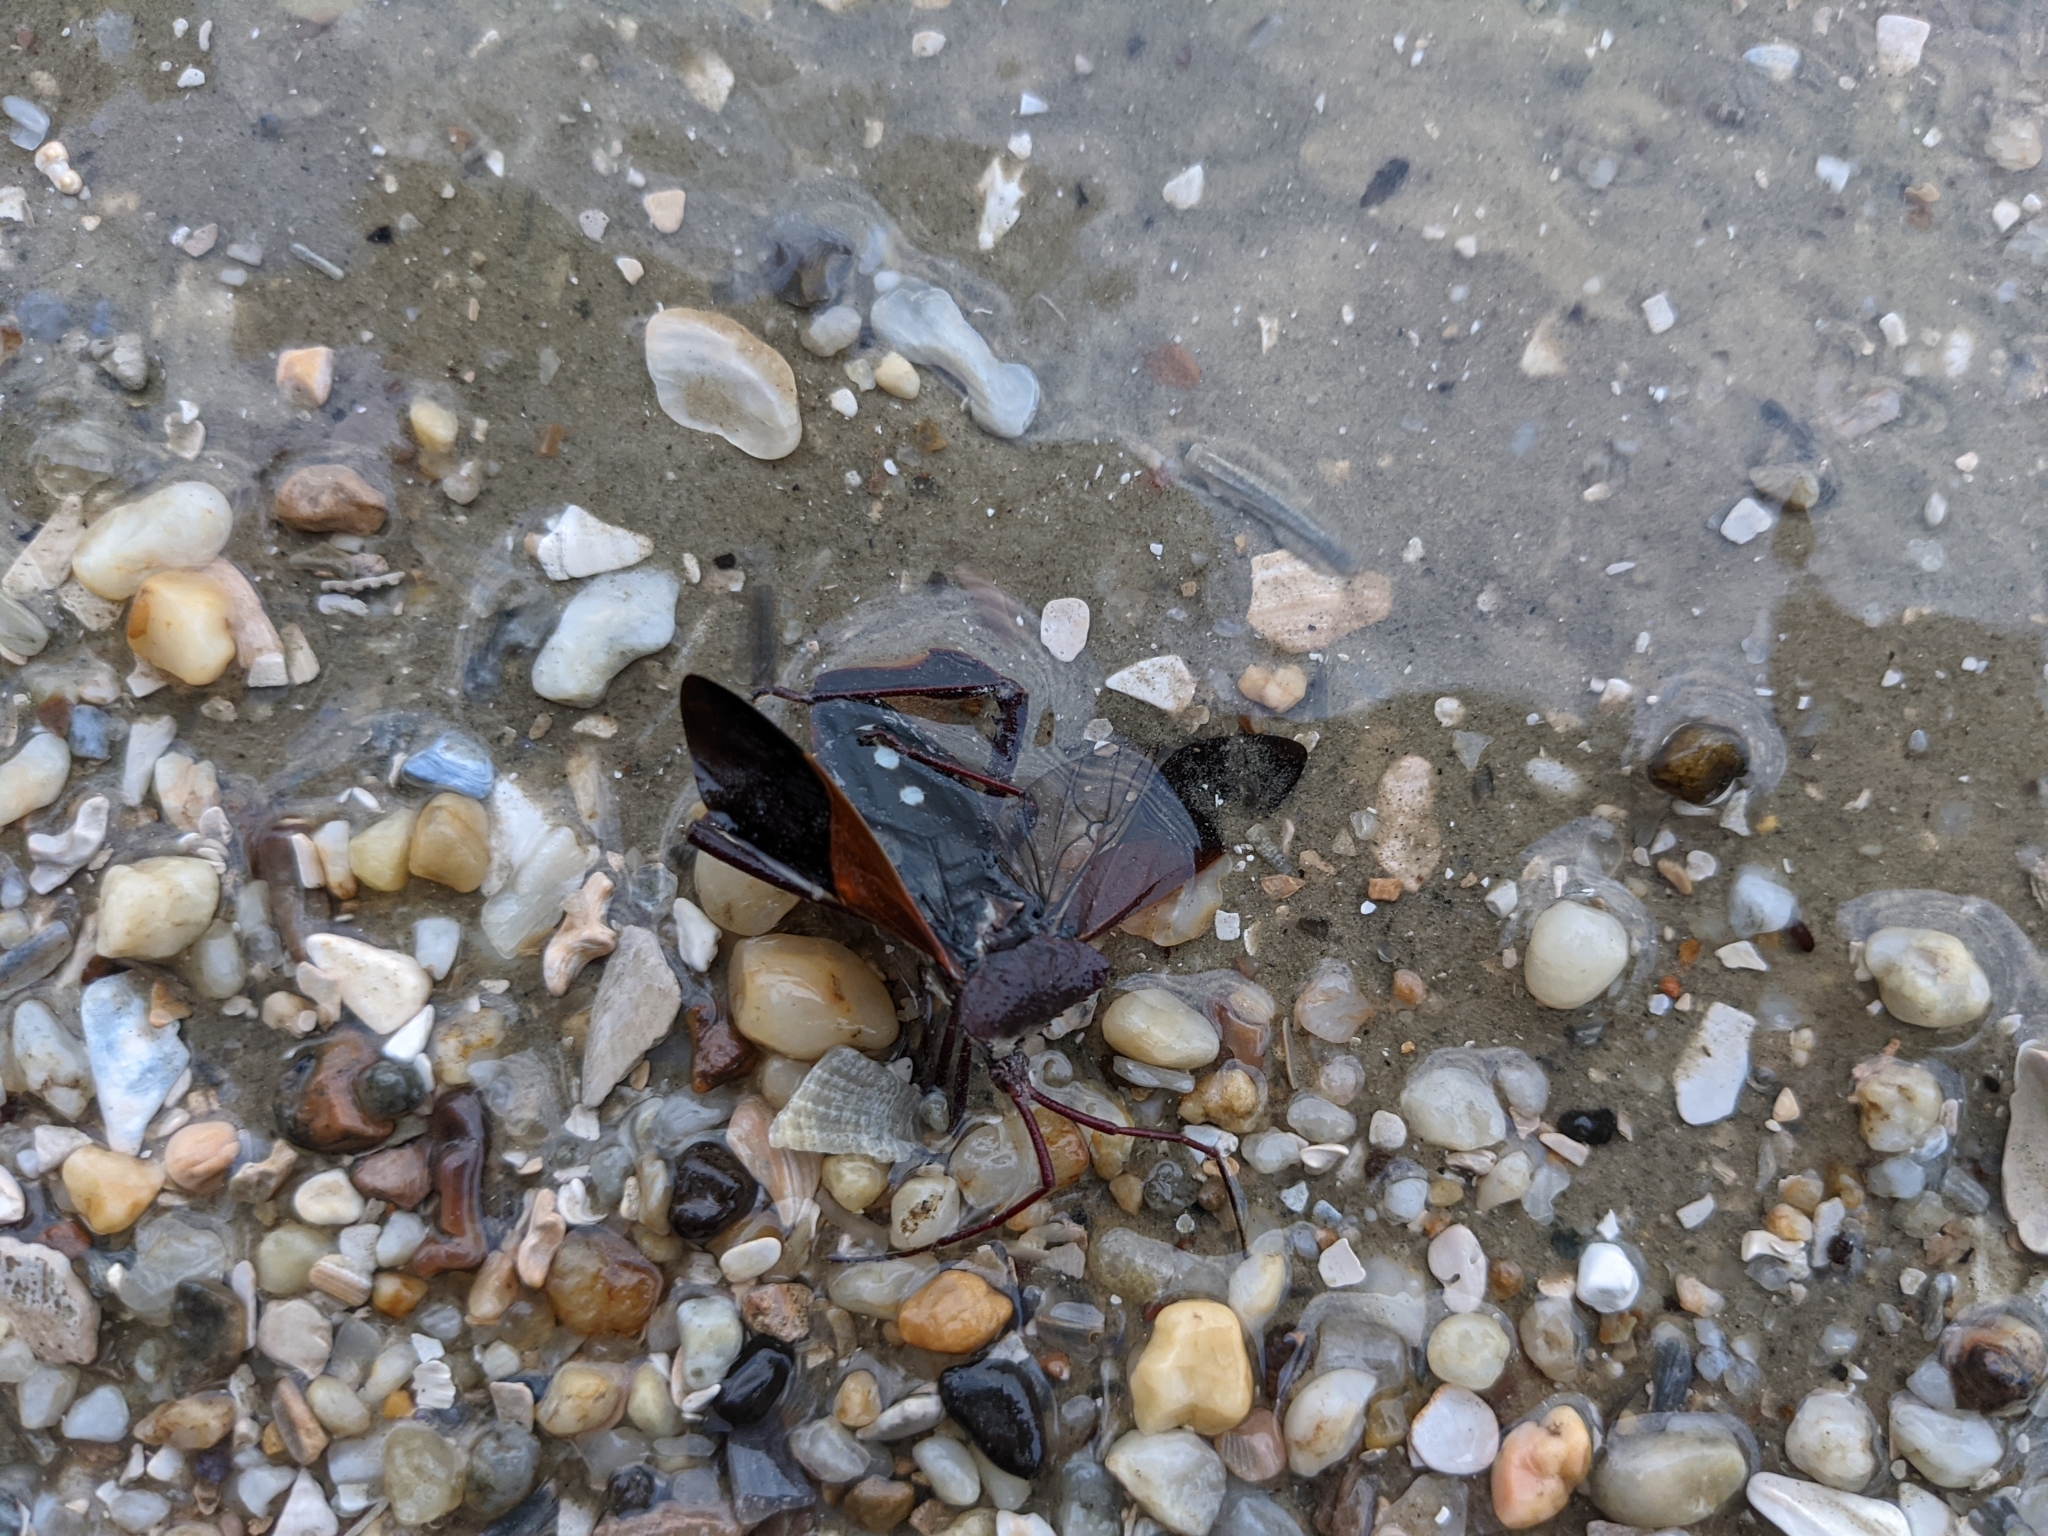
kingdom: Animalia
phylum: Arthropoda
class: Insecta
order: Hemiptera
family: Coreidae
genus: Acanthocephala
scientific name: Acanthocephala declivis
